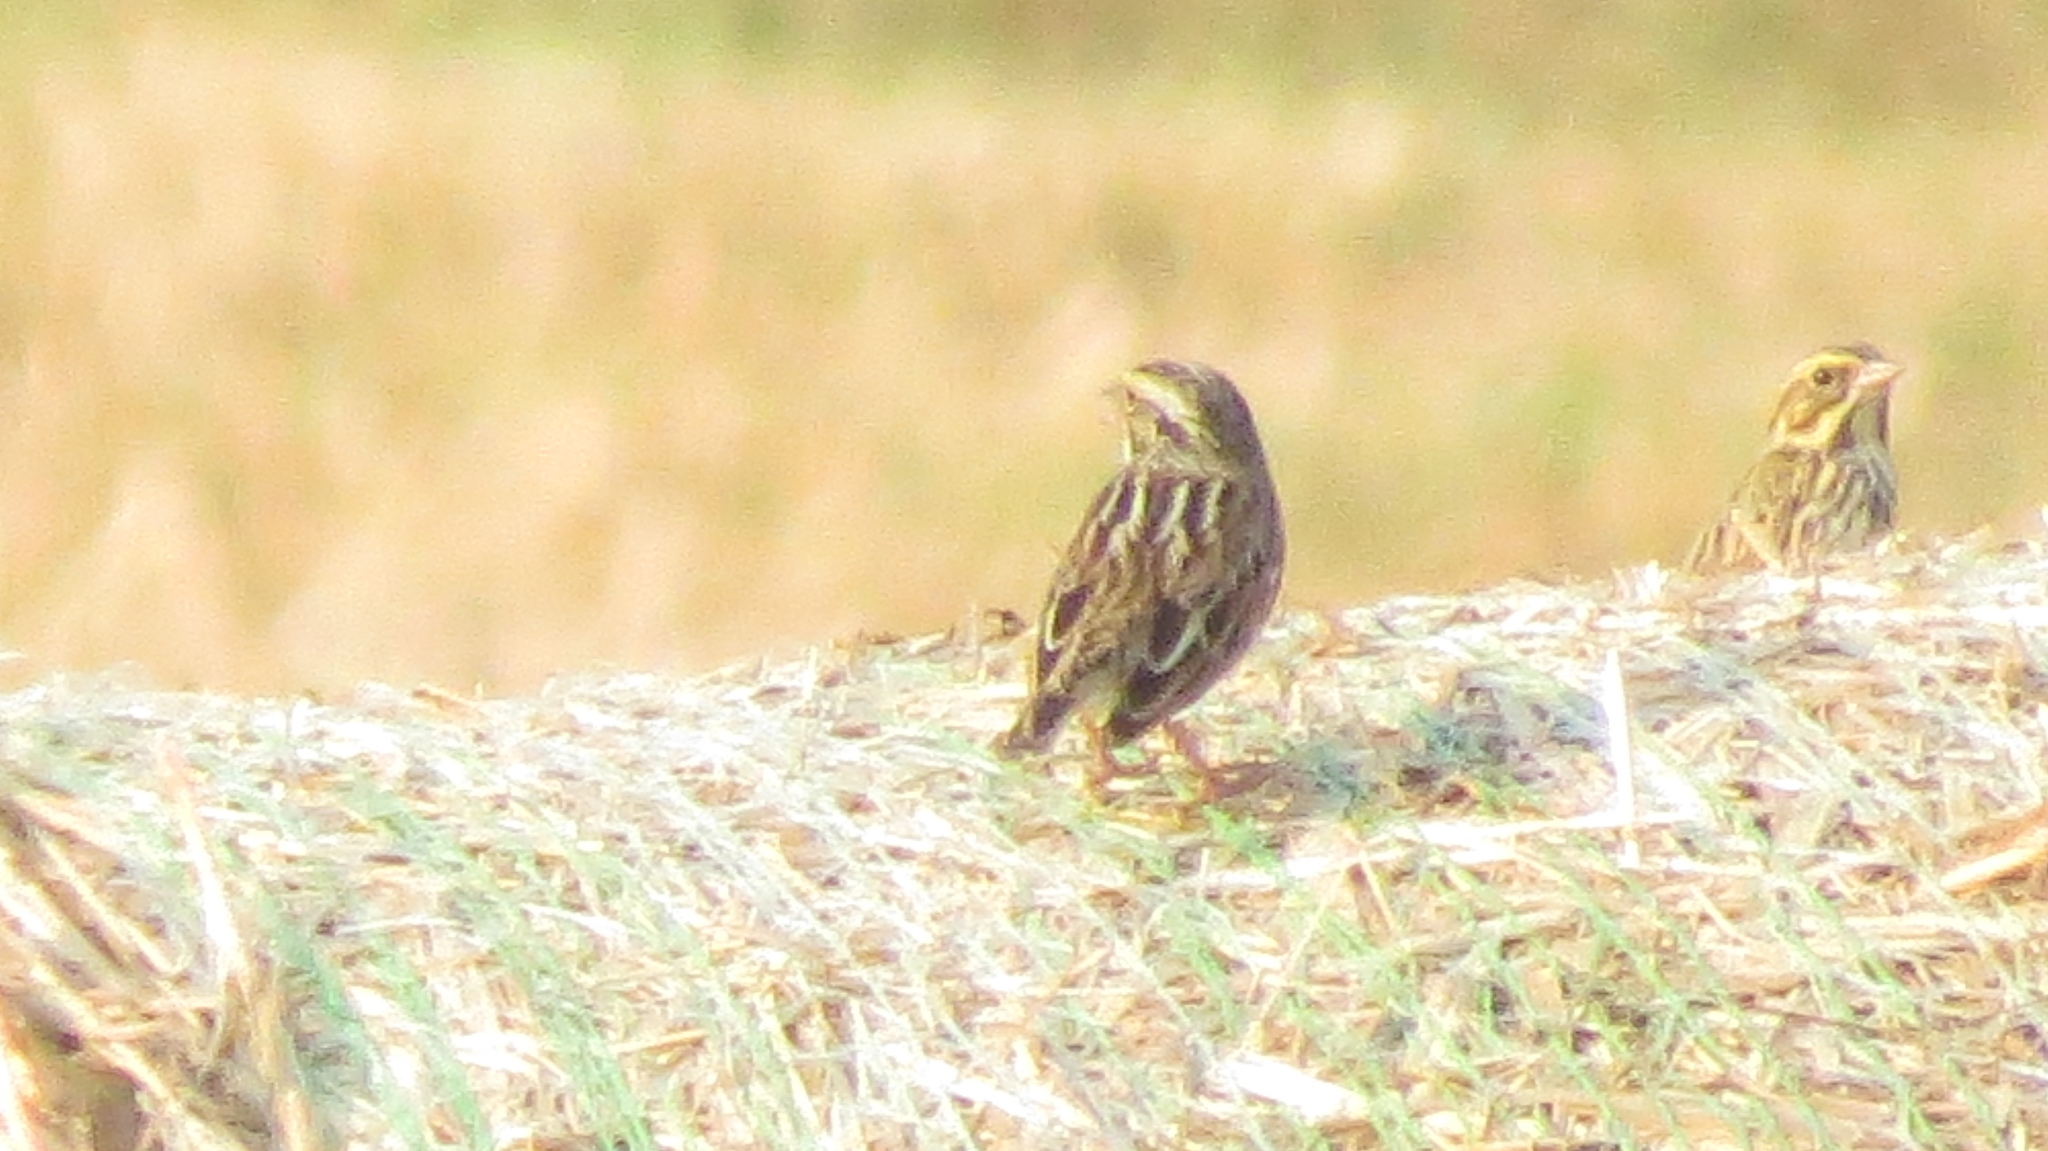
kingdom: Animalia
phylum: Chordata
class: Aves
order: Passeriformes
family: Passerellidae
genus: Passerculus
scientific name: Passerculus sandwichensis
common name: Savannah sparrow
